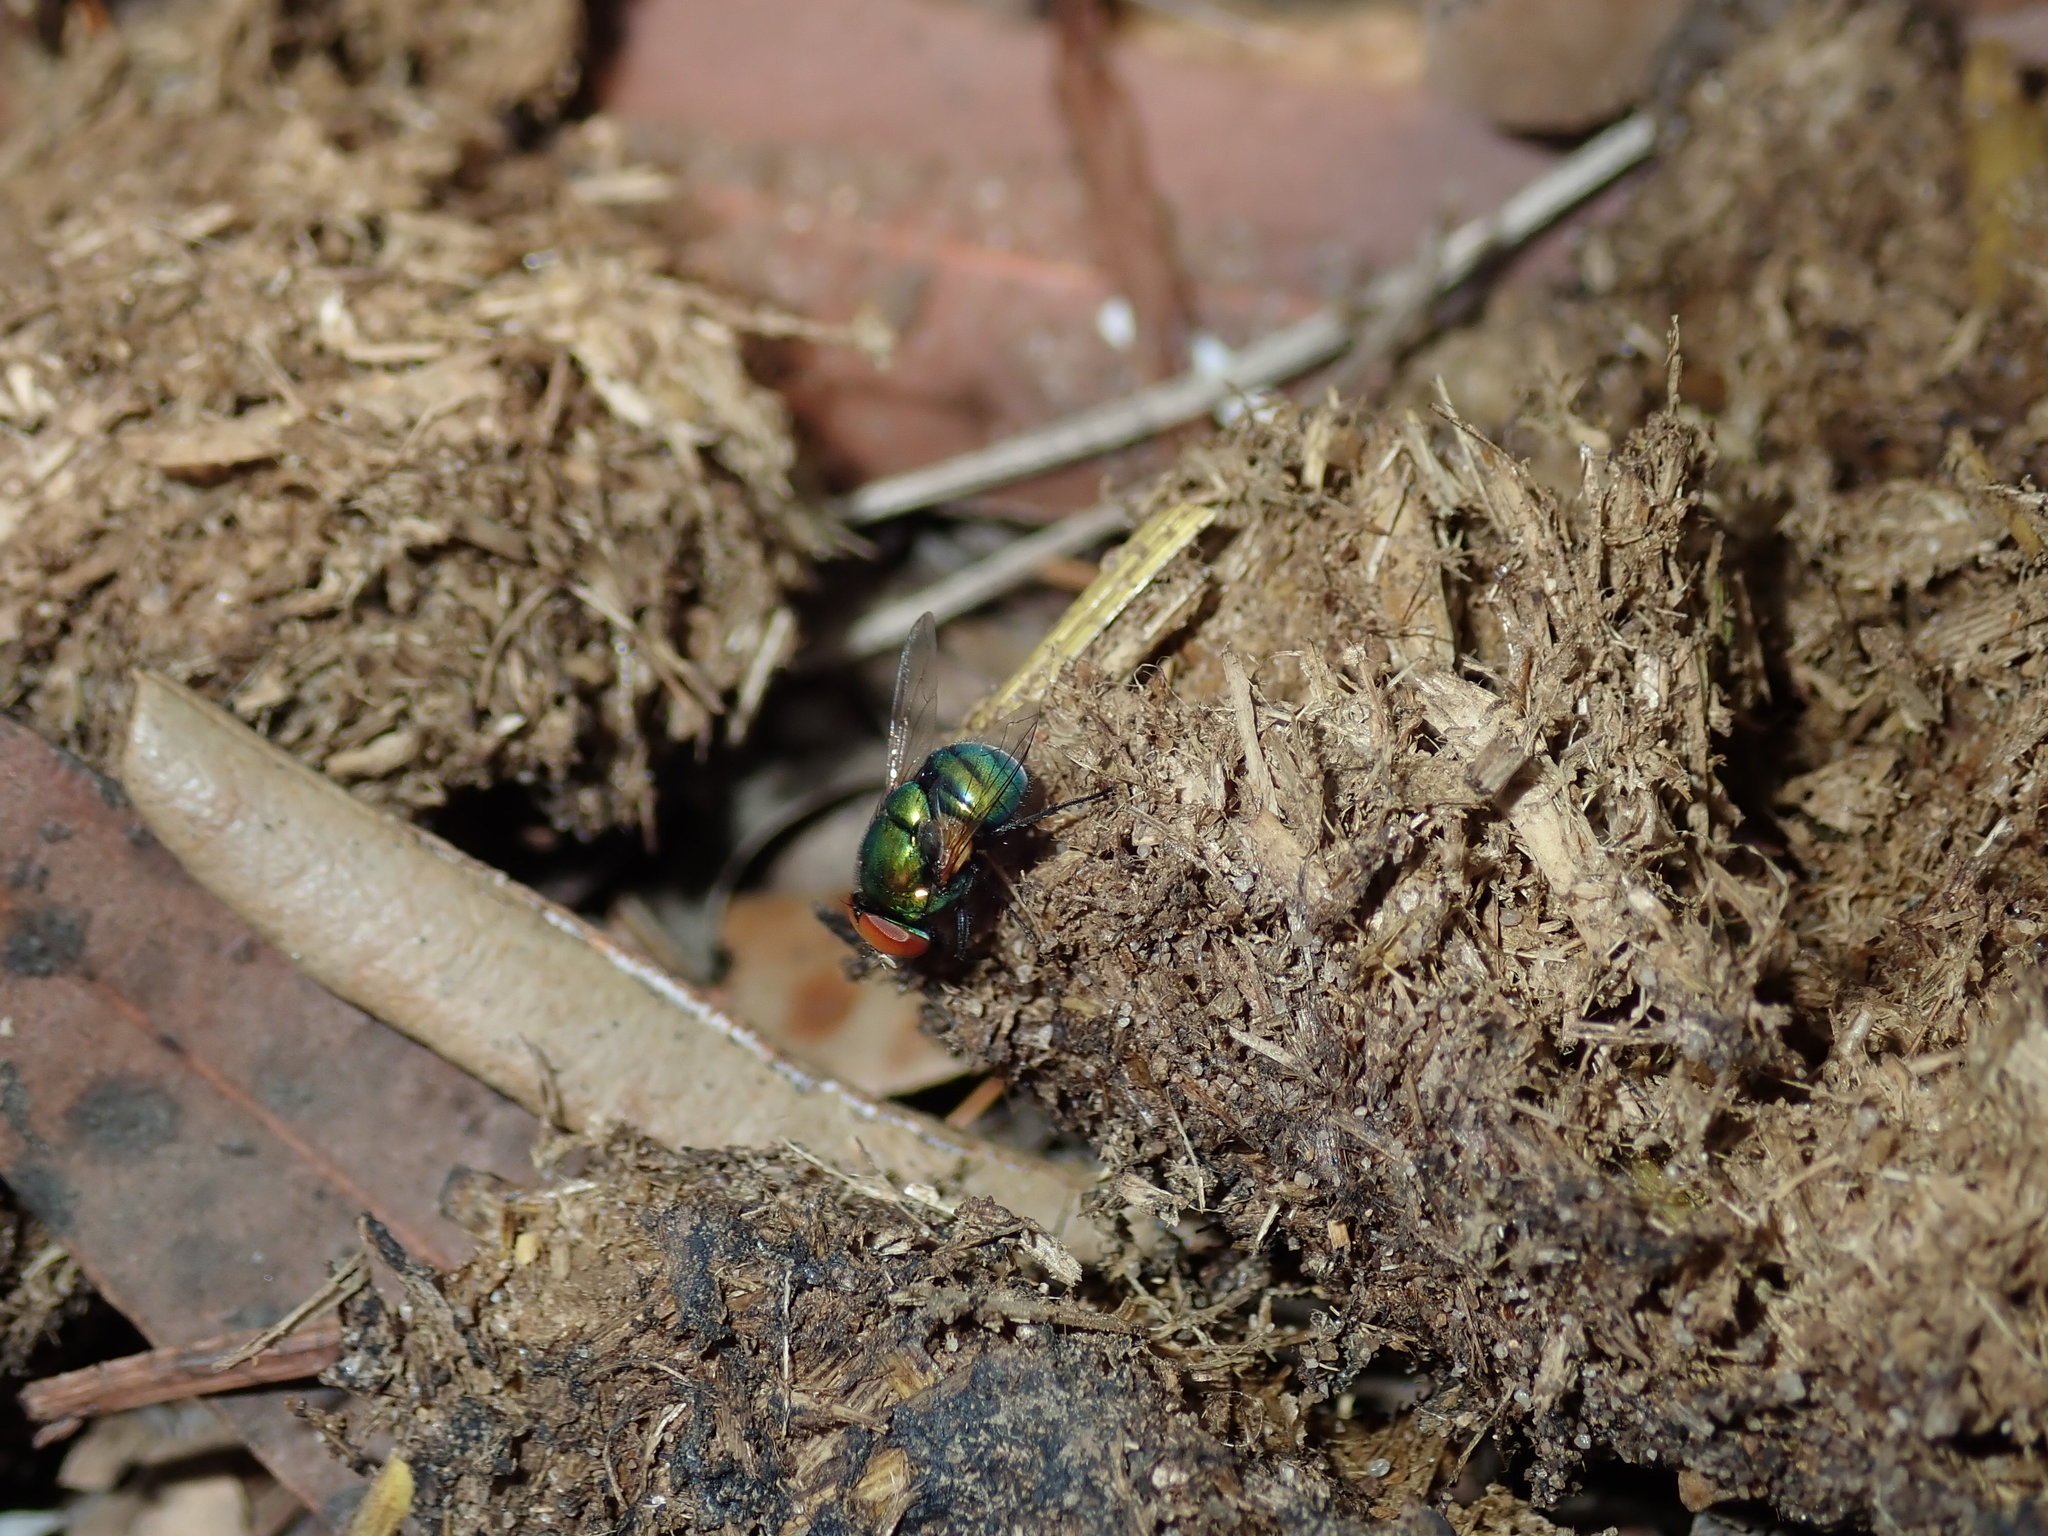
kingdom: Animalia
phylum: Arthropoda
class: Insecta
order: Diptera
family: Muscidae
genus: Neomyia
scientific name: Neomyia lauta
